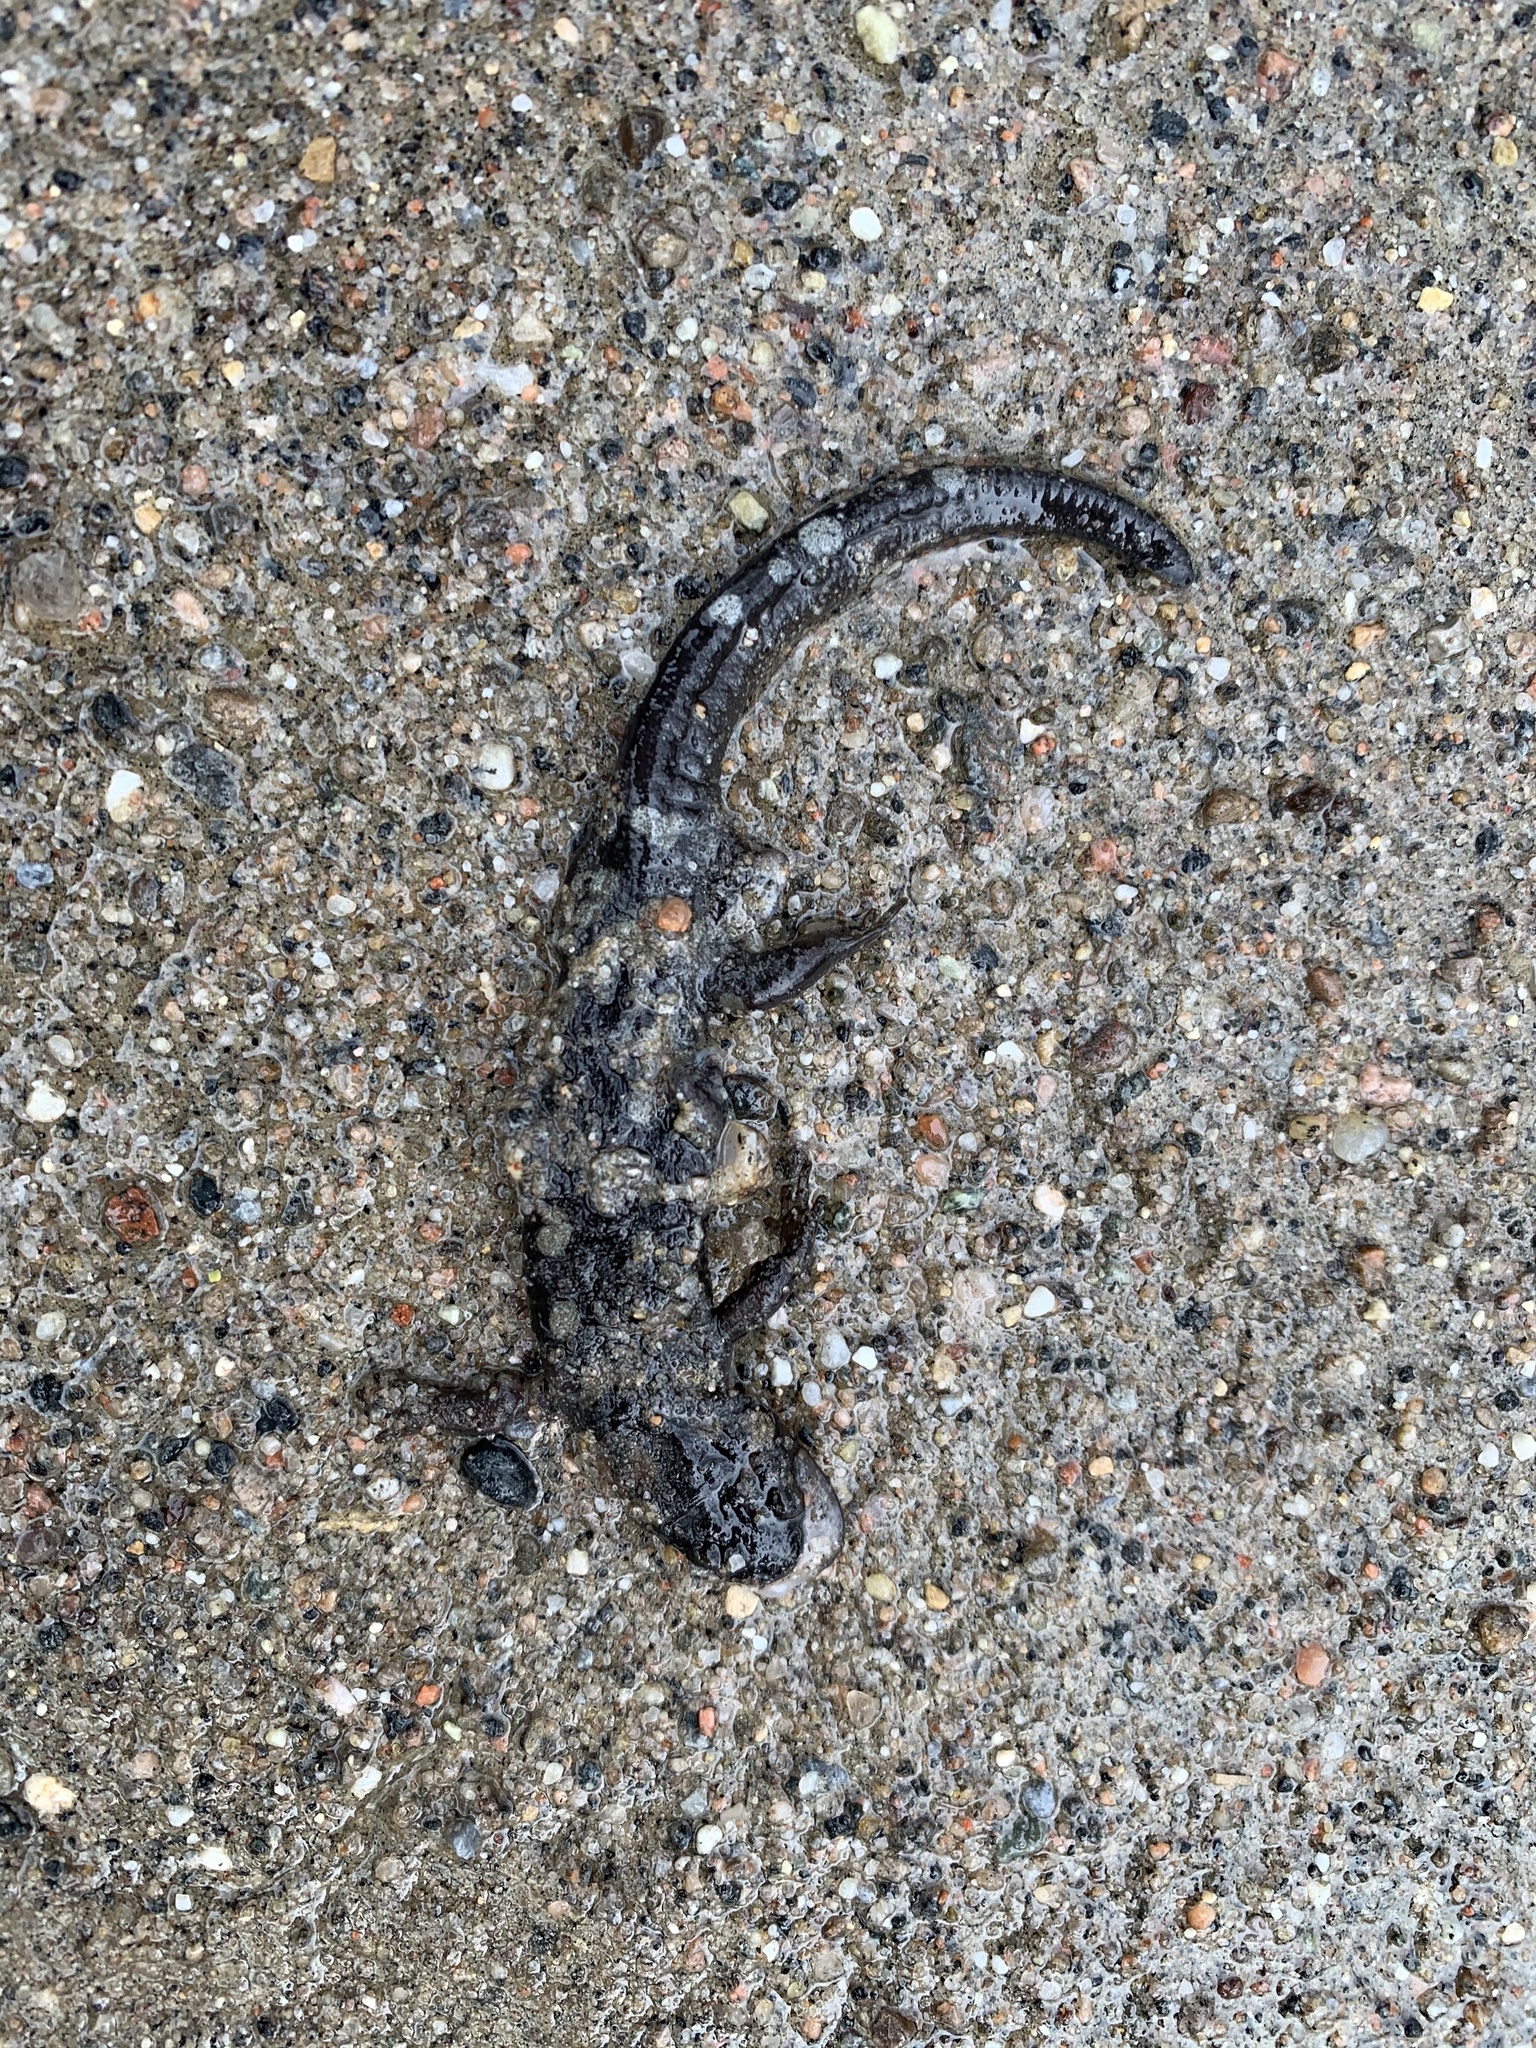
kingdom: Animalia
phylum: Chordata
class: Amphibia
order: Caudata
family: Ambystomatidae
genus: Ambystoma
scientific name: Ambystoma maculatum
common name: Spotted salamander
